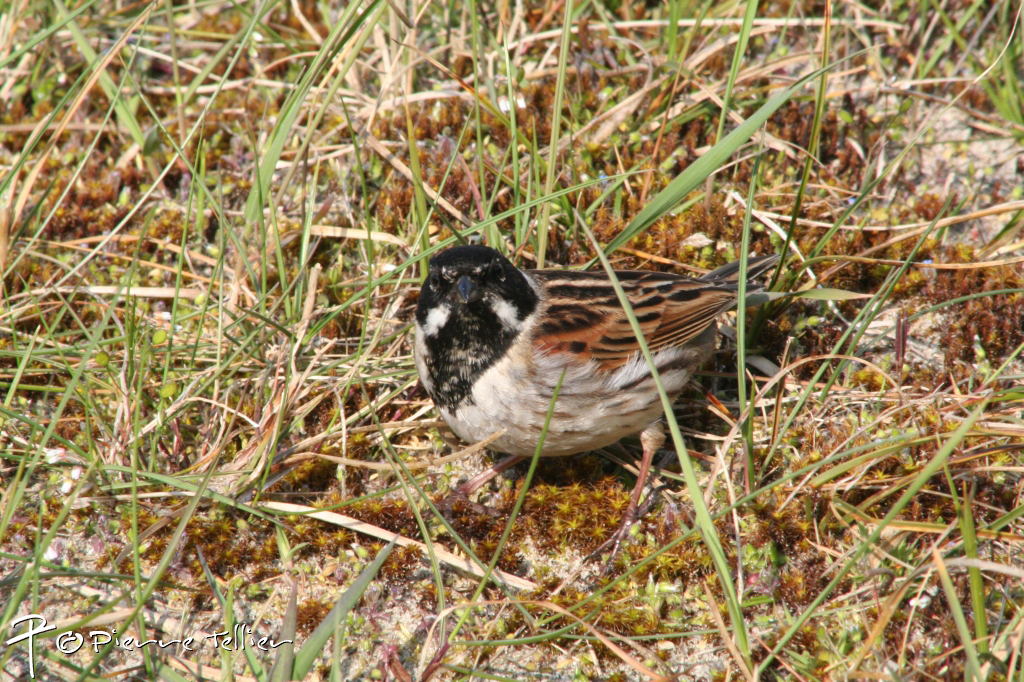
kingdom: Animalia
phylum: Chordata
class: Aves
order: Passeriformes
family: Emberizidae
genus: Emberiza
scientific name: Emberiza schoeniclus
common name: Reed bunting
